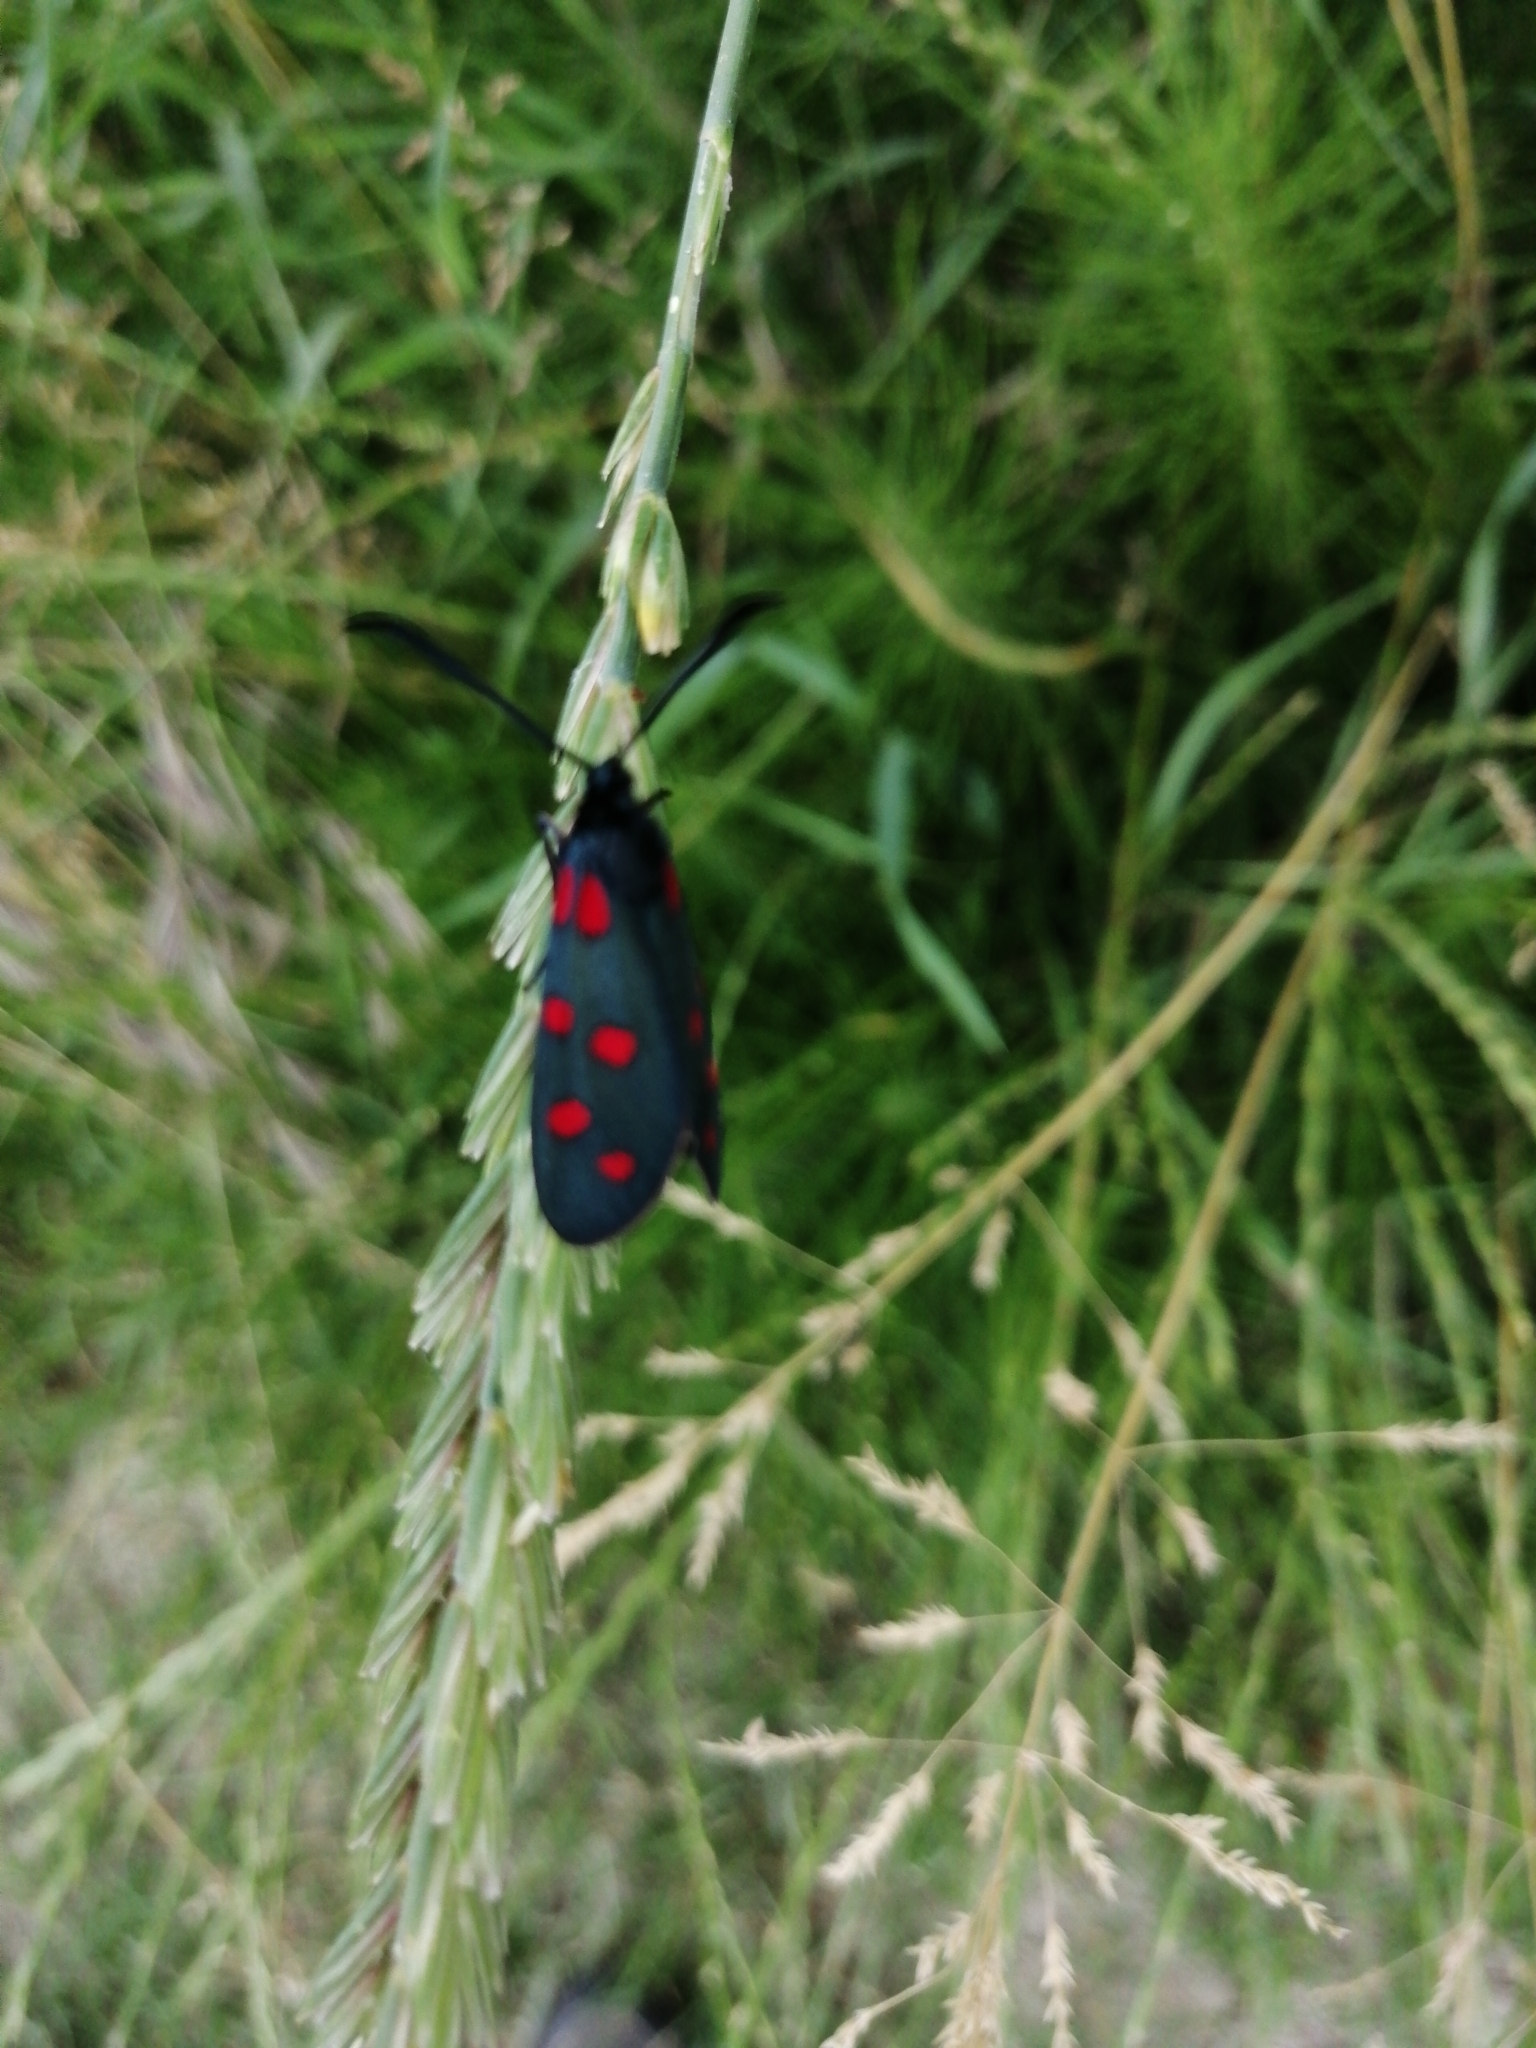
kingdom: Animalia
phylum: Arthropoda
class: Insecta
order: Lepidoptera
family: Zygaenidae
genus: Zygaena
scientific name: Zygaena transalpina
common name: Southern six spot burnet
